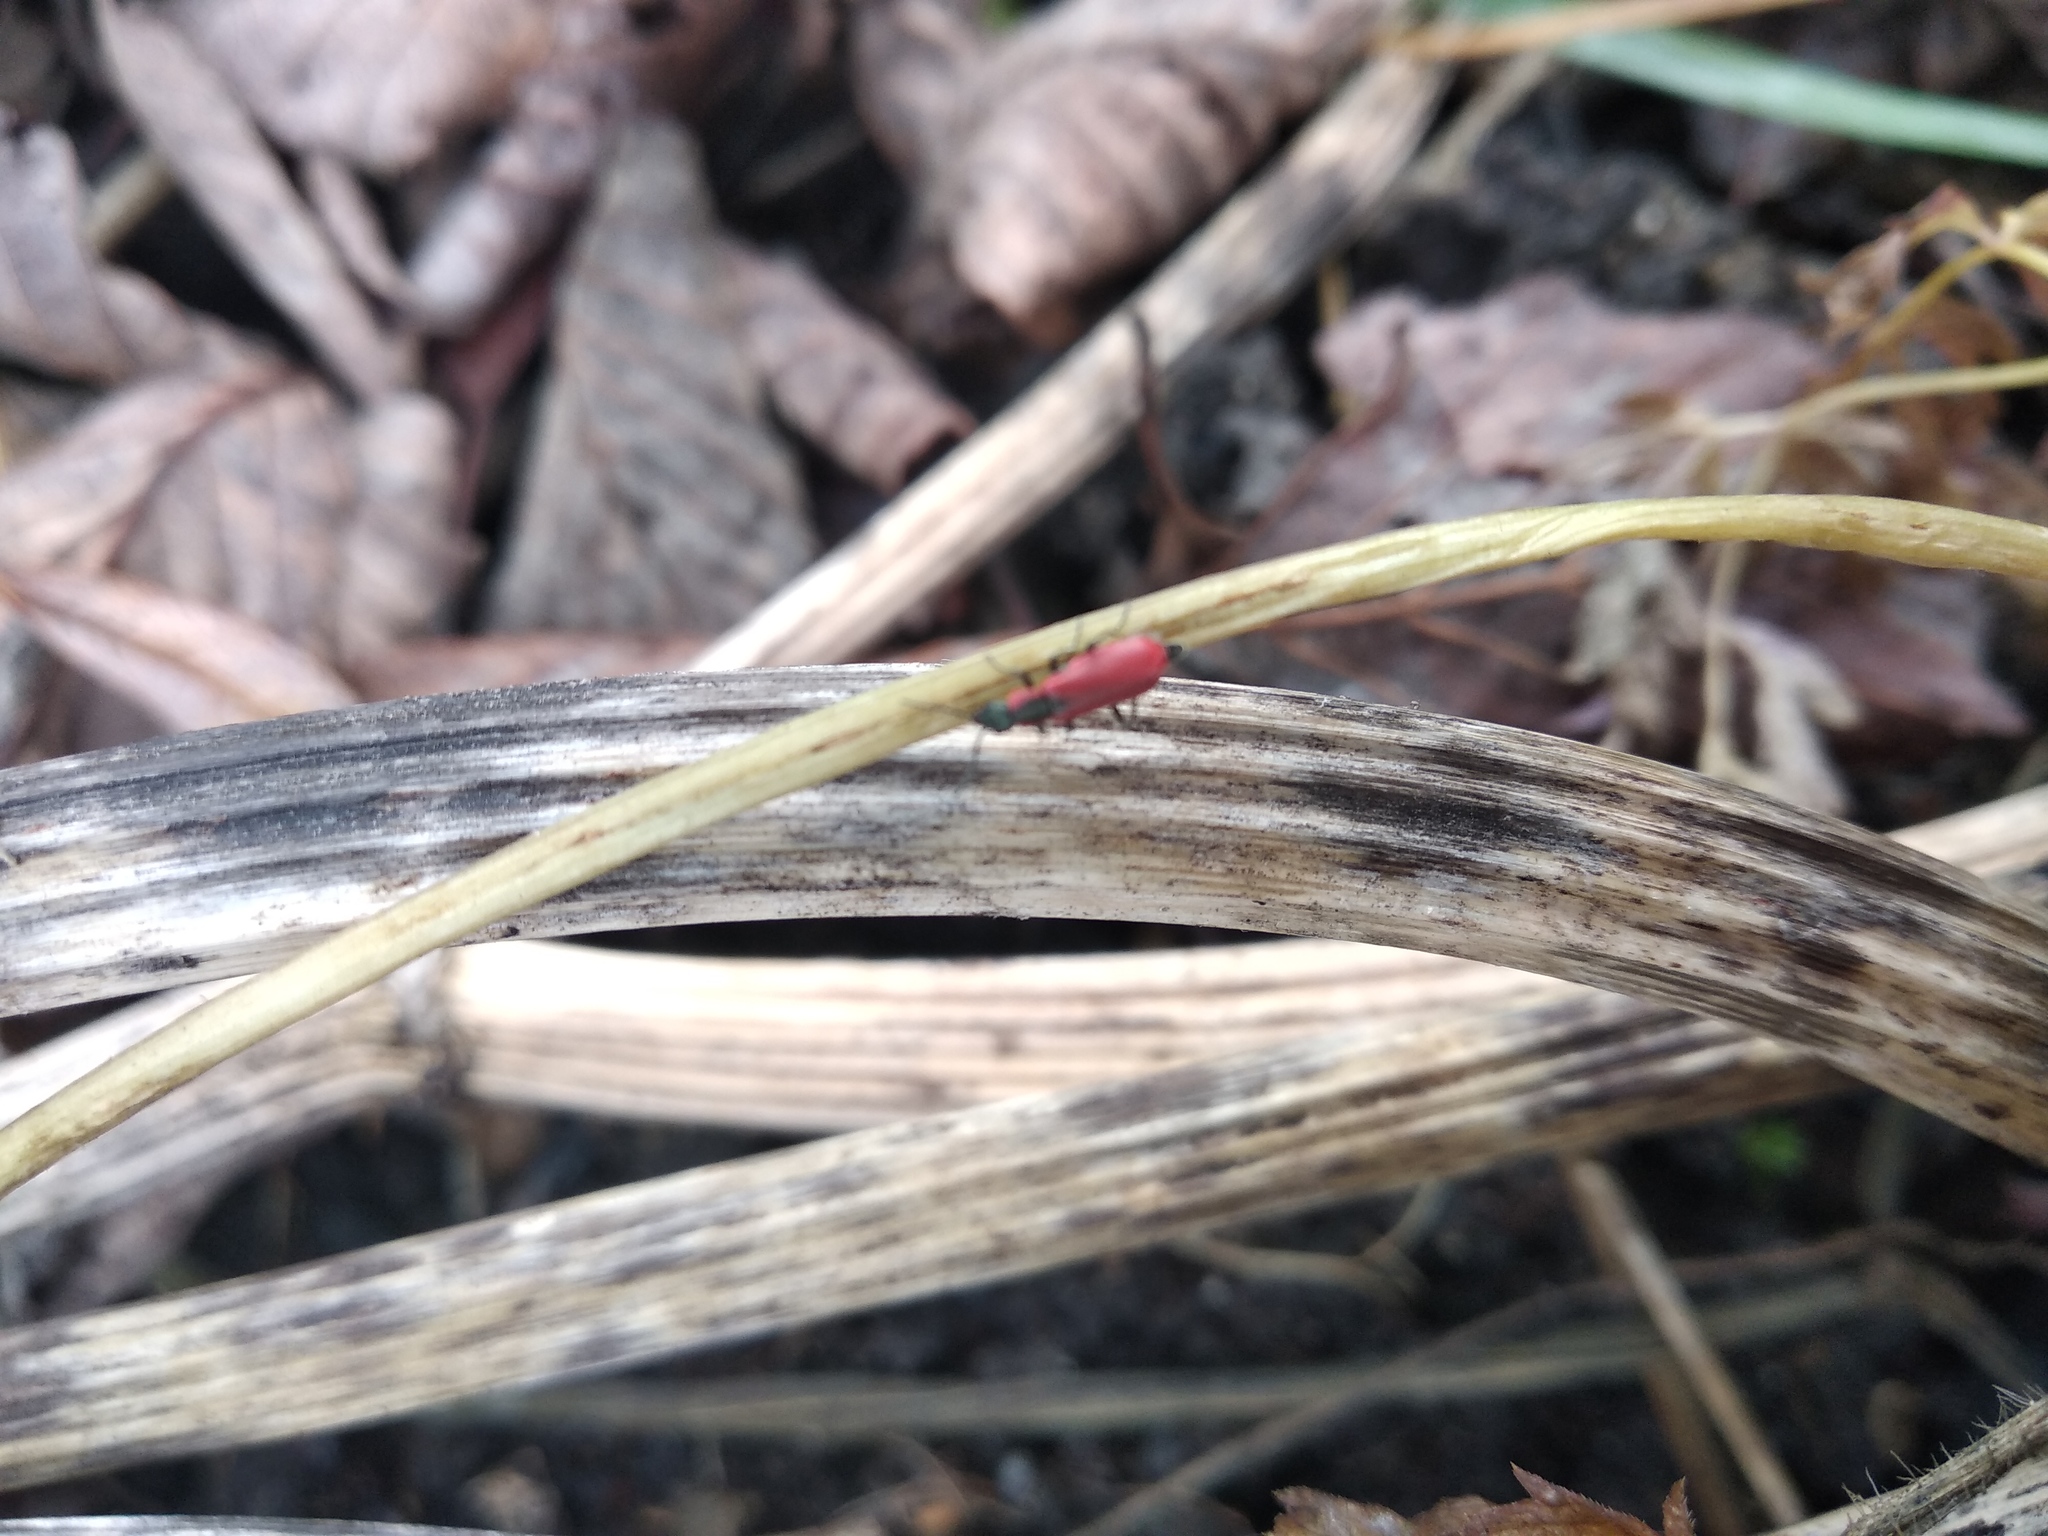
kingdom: Animalia
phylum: Arthropoda
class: Insecta
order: Coleoptera
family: Melyridae
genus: Anthocomus
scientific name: Anthocomus rufus
